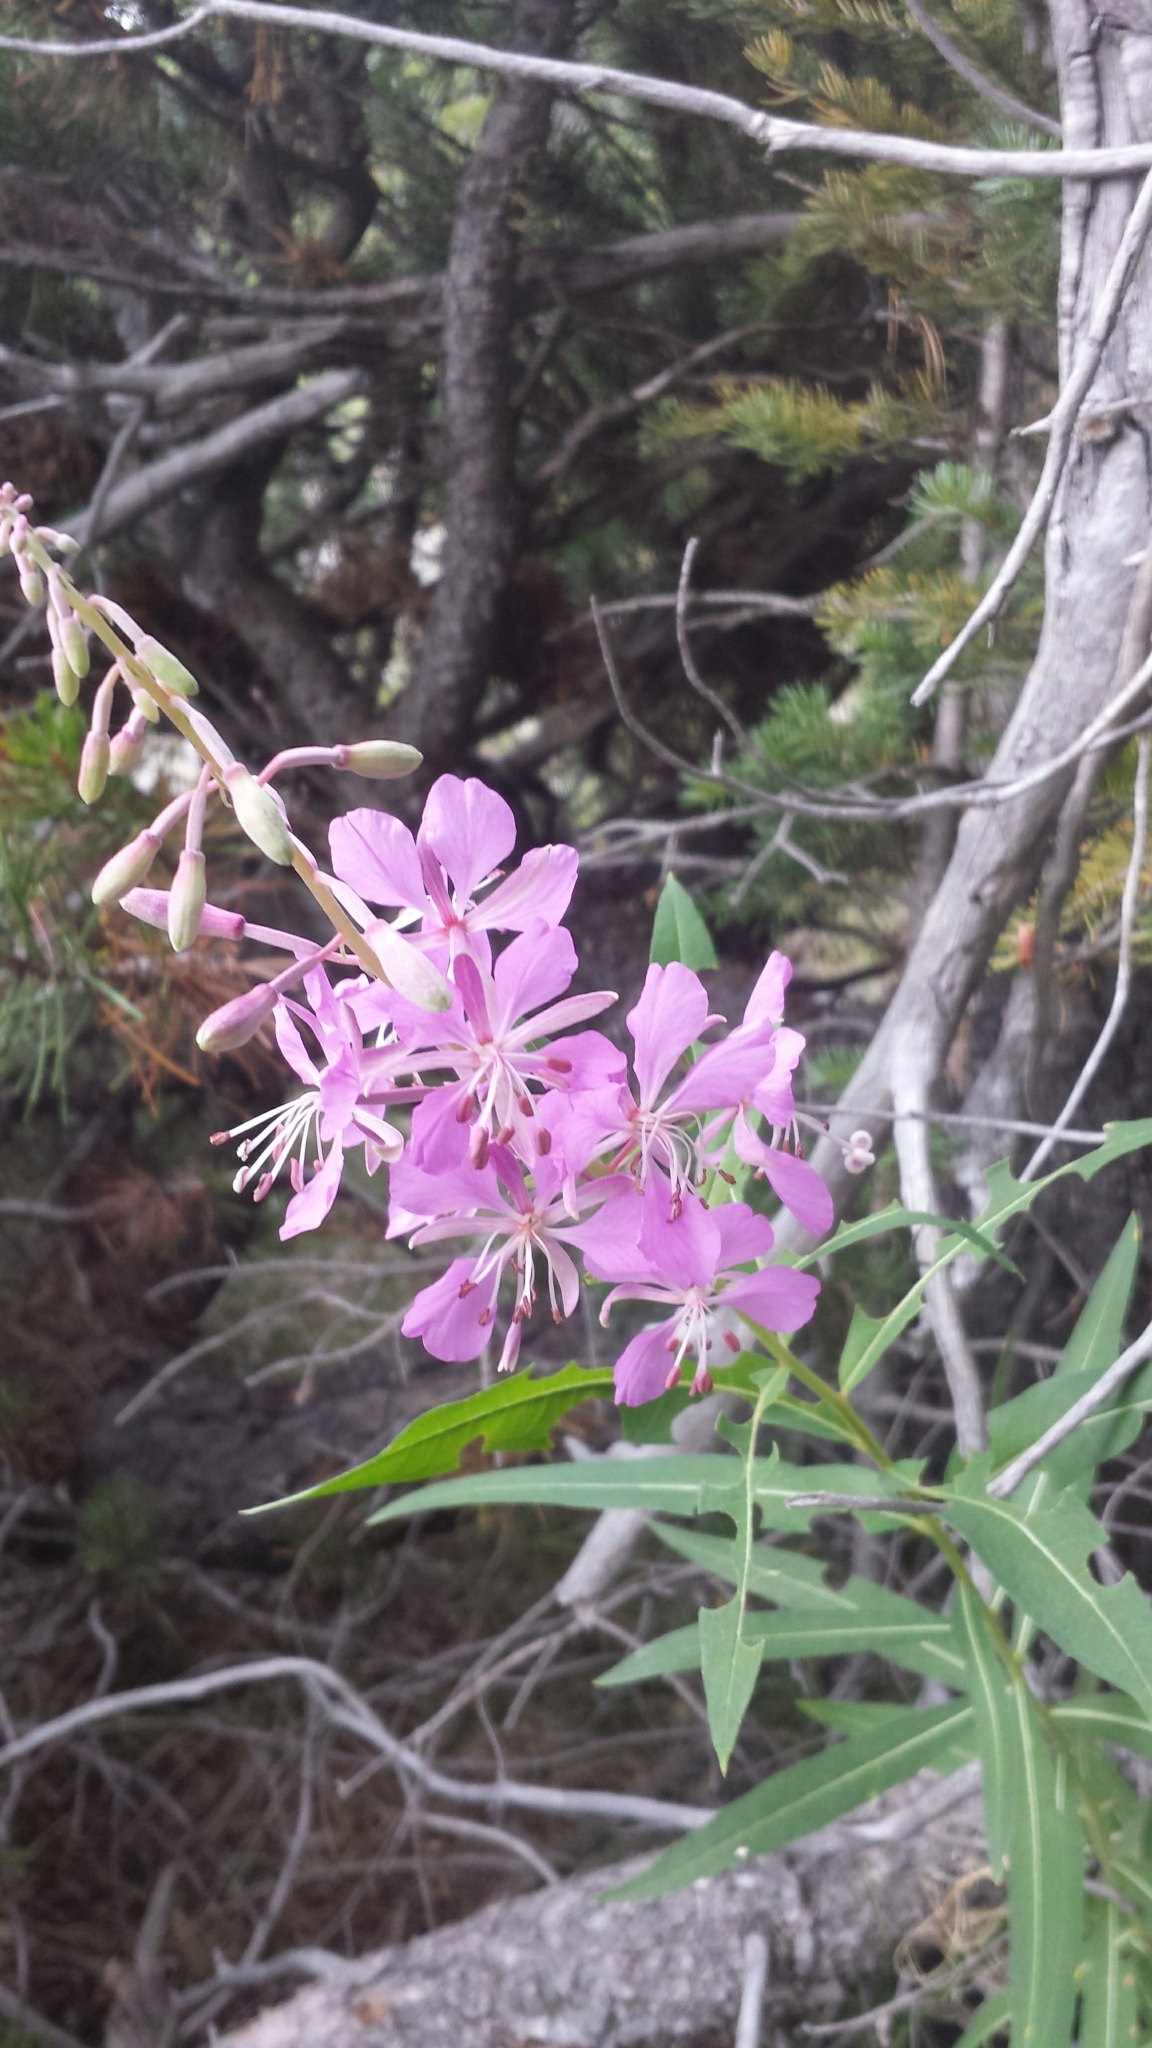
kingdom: Plantae
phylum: Tracheophyta
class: Magnoliopsida
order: Myrtales
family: Onagraceae
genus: Chamaenerion
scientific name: Chamaenerion angustifolium
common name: Fireweed
